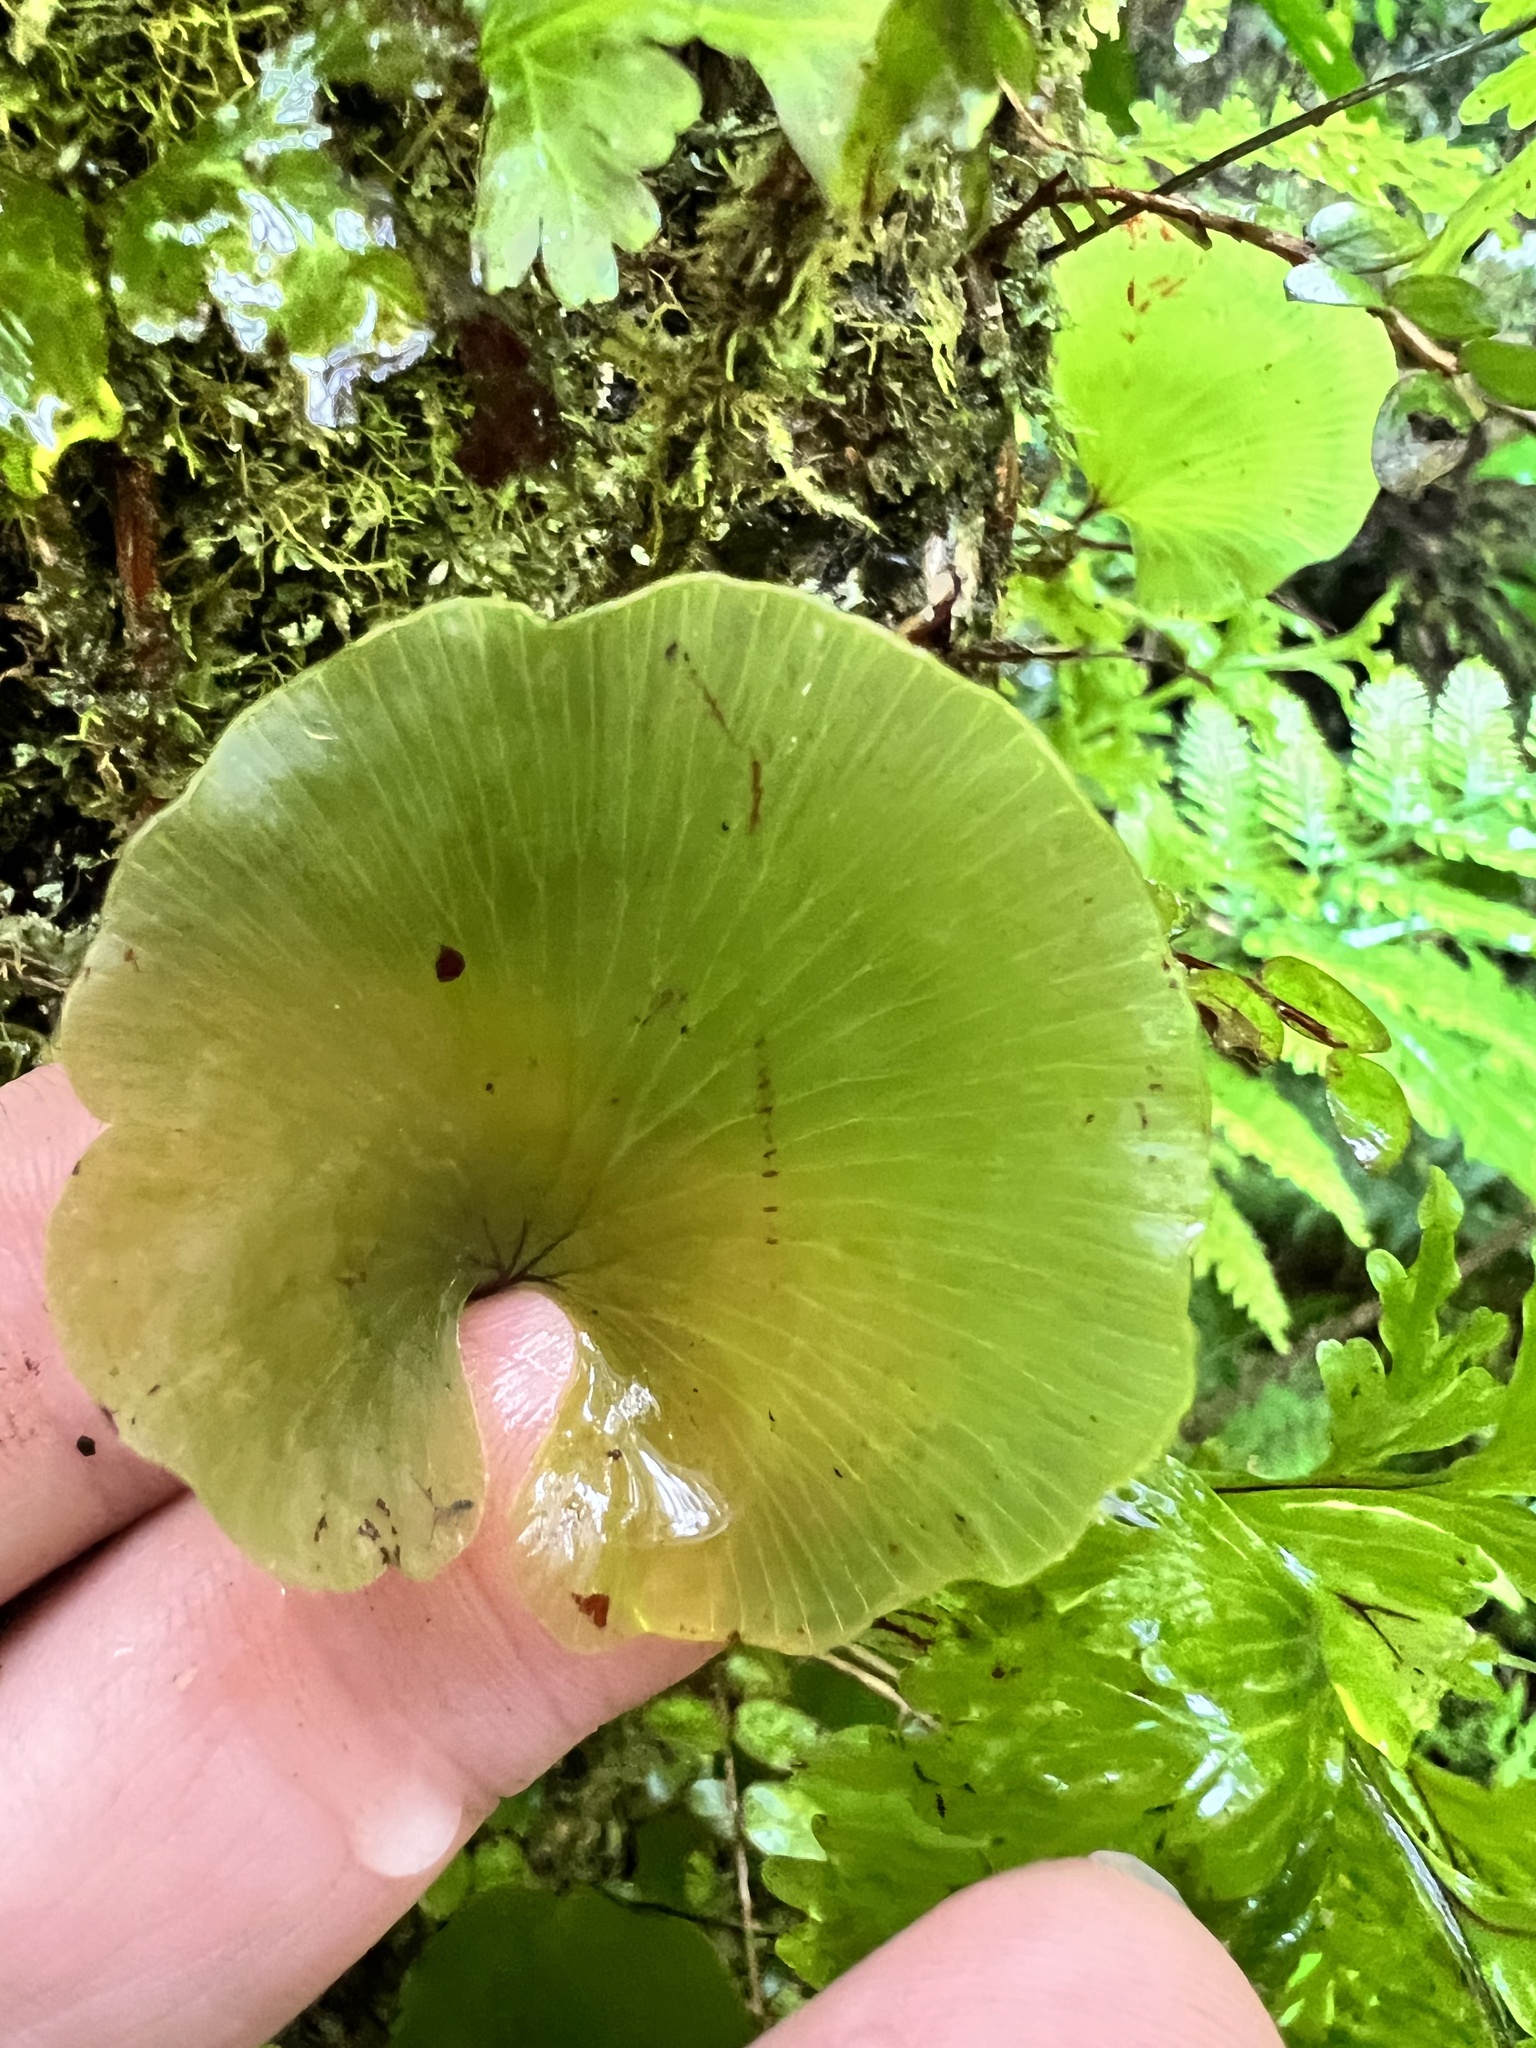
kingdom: Plantae
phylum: Tracheophyta
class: Polypodiopsida
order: Hymenophyllales
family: Hymenophyllaceae
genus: Hymenophyllum
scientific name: Hymenophyllum nephrophyllum
